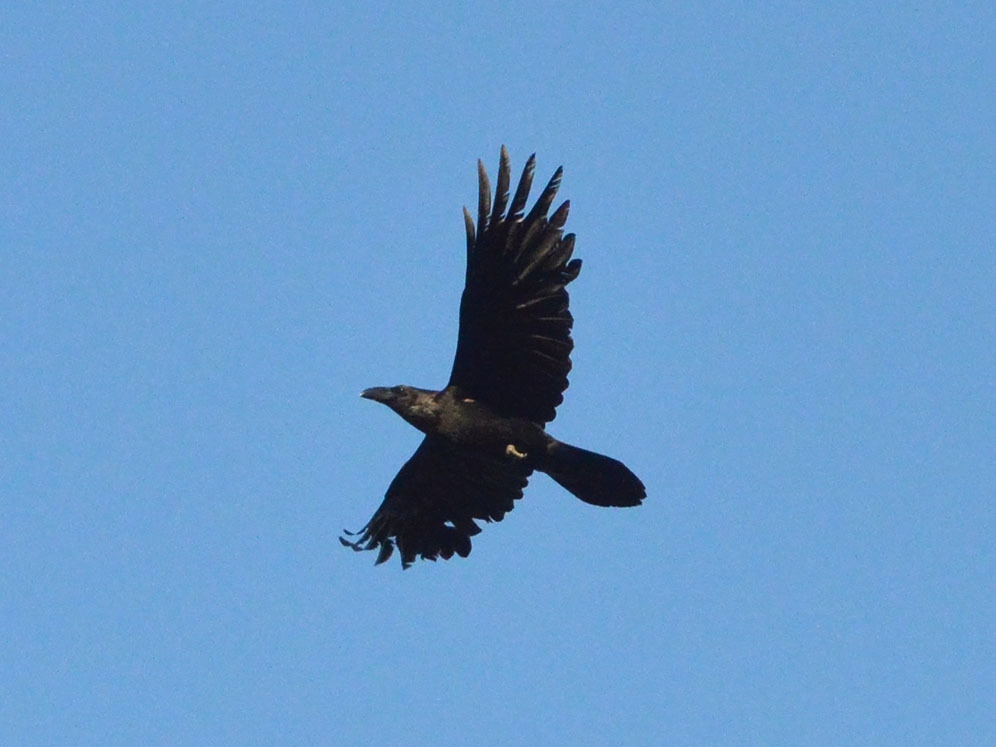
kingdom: Animalia
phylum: Chordata
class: Aves
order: Passeriformes
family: Corvidae
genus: Corvus
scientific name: Corvus corax
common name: Common raven
